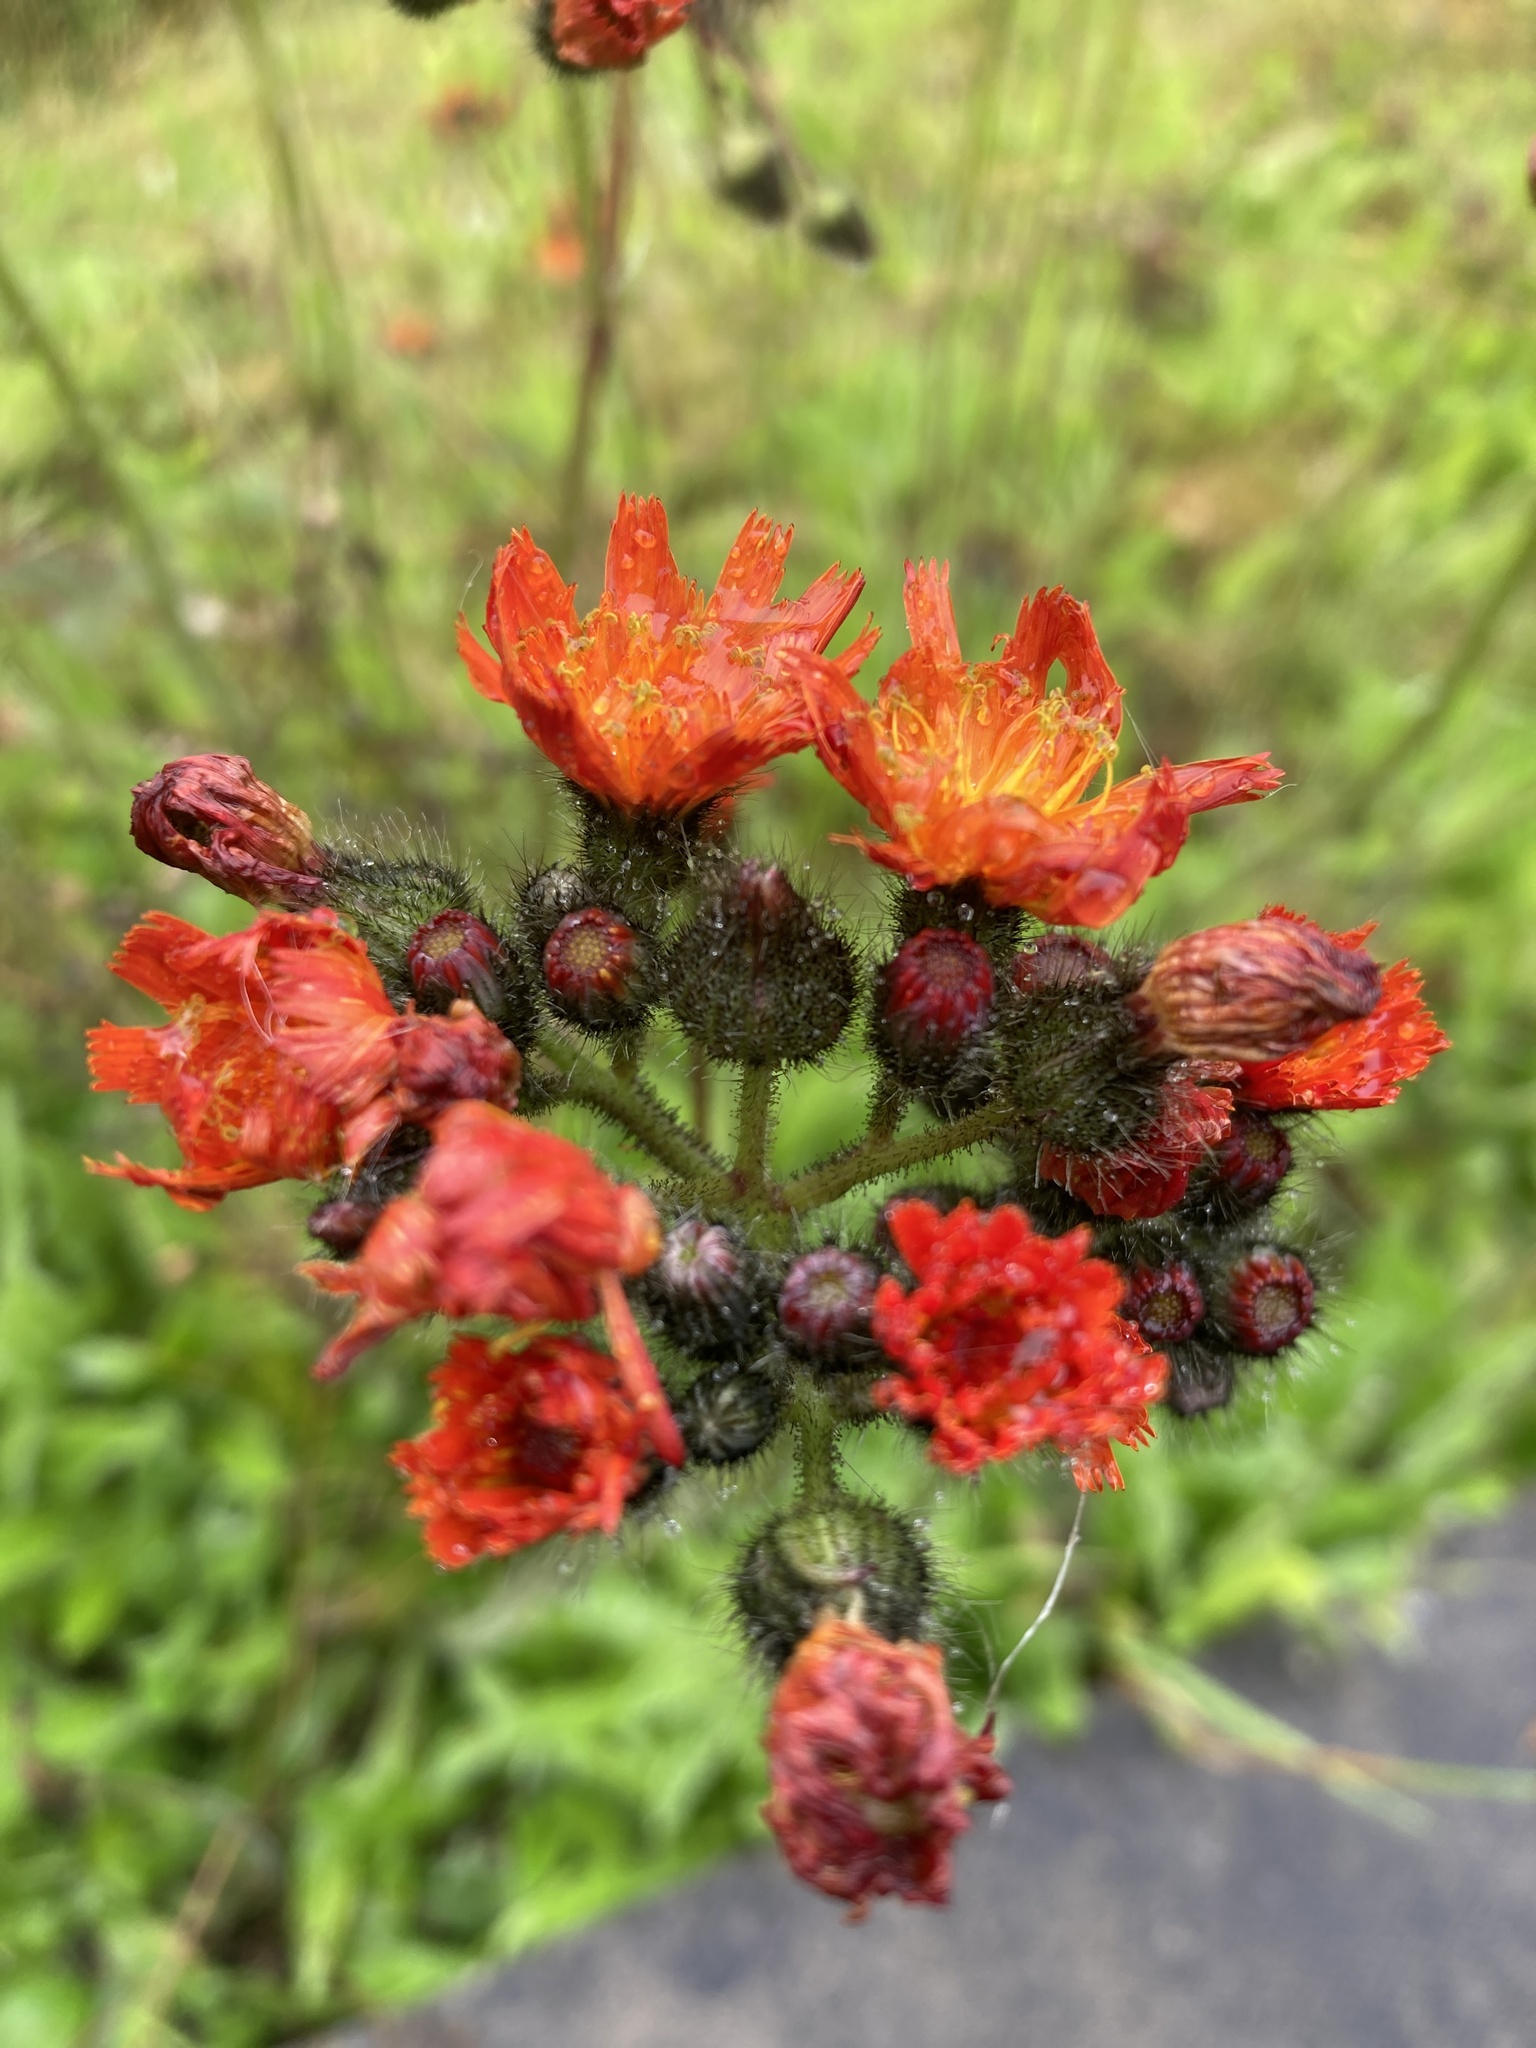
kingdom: Plantae
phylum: Tracheophyta
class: Magnoliopsida
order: Asterales
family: Asteraceae
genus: Pilosella
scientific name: Pilosella aurantiaca
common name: Fox-and-cubs
